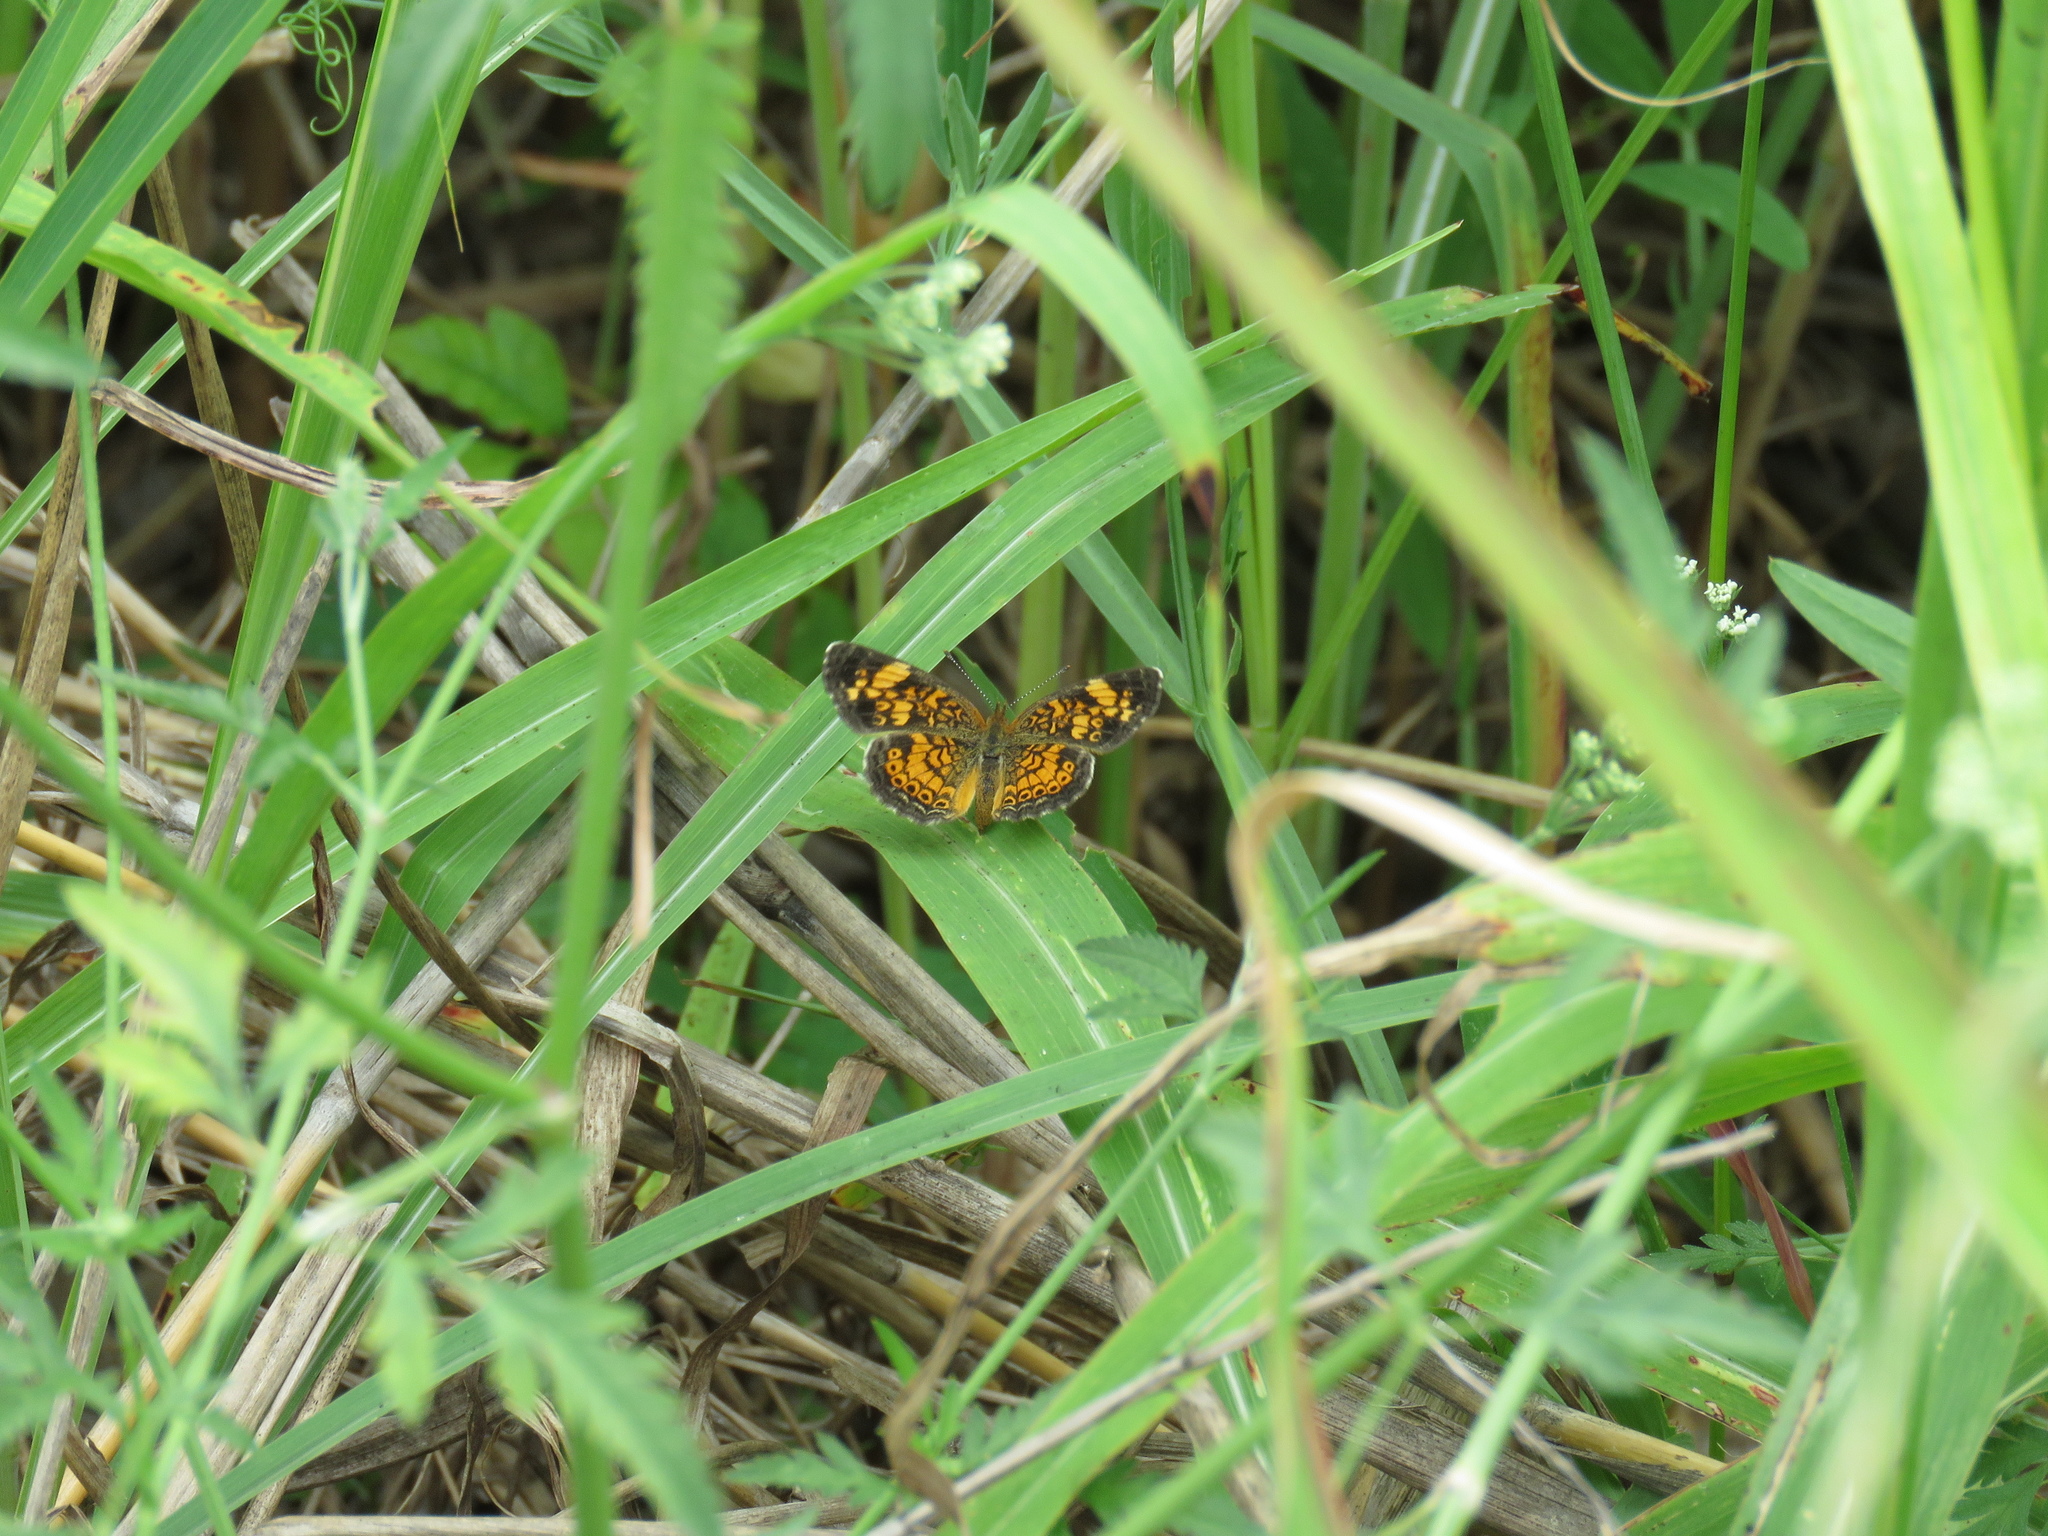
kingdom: Animalia
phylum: Arthropoda
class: Insecta
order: Lepidoptera
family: Nymphalidae
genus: Phyciodes
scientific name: Phyciodes tharos
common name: Pearl crescent
